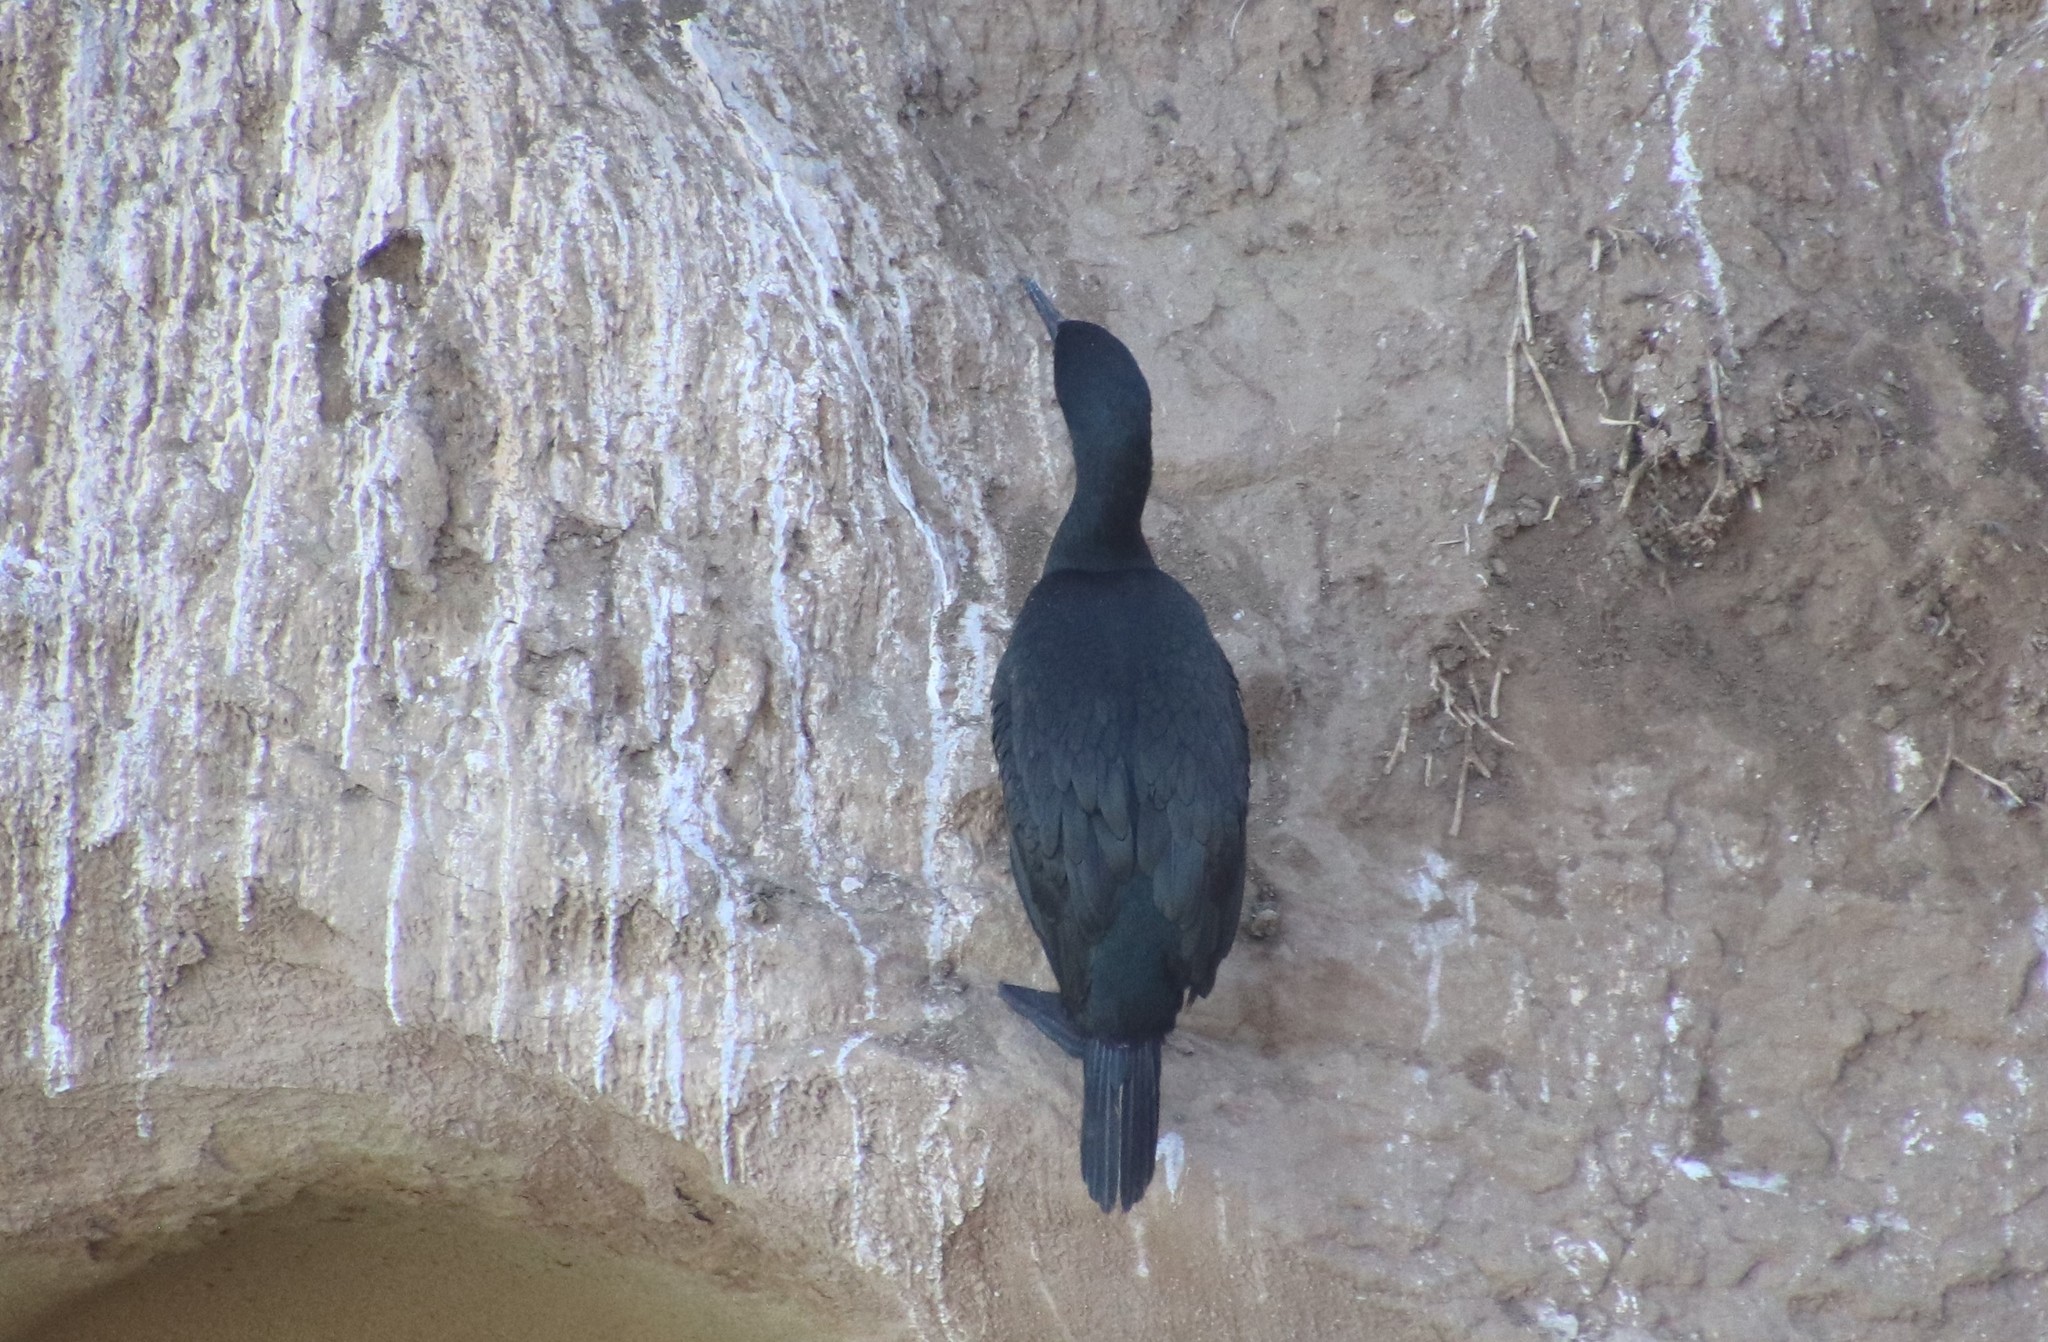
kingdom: Animalia
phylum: Chordata
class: Aves
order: Suliformes
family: Phalacrocoracidae
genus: Phalacrocorax
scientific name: Phalacrocorax pelagicus
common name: Pelagic cormorant
